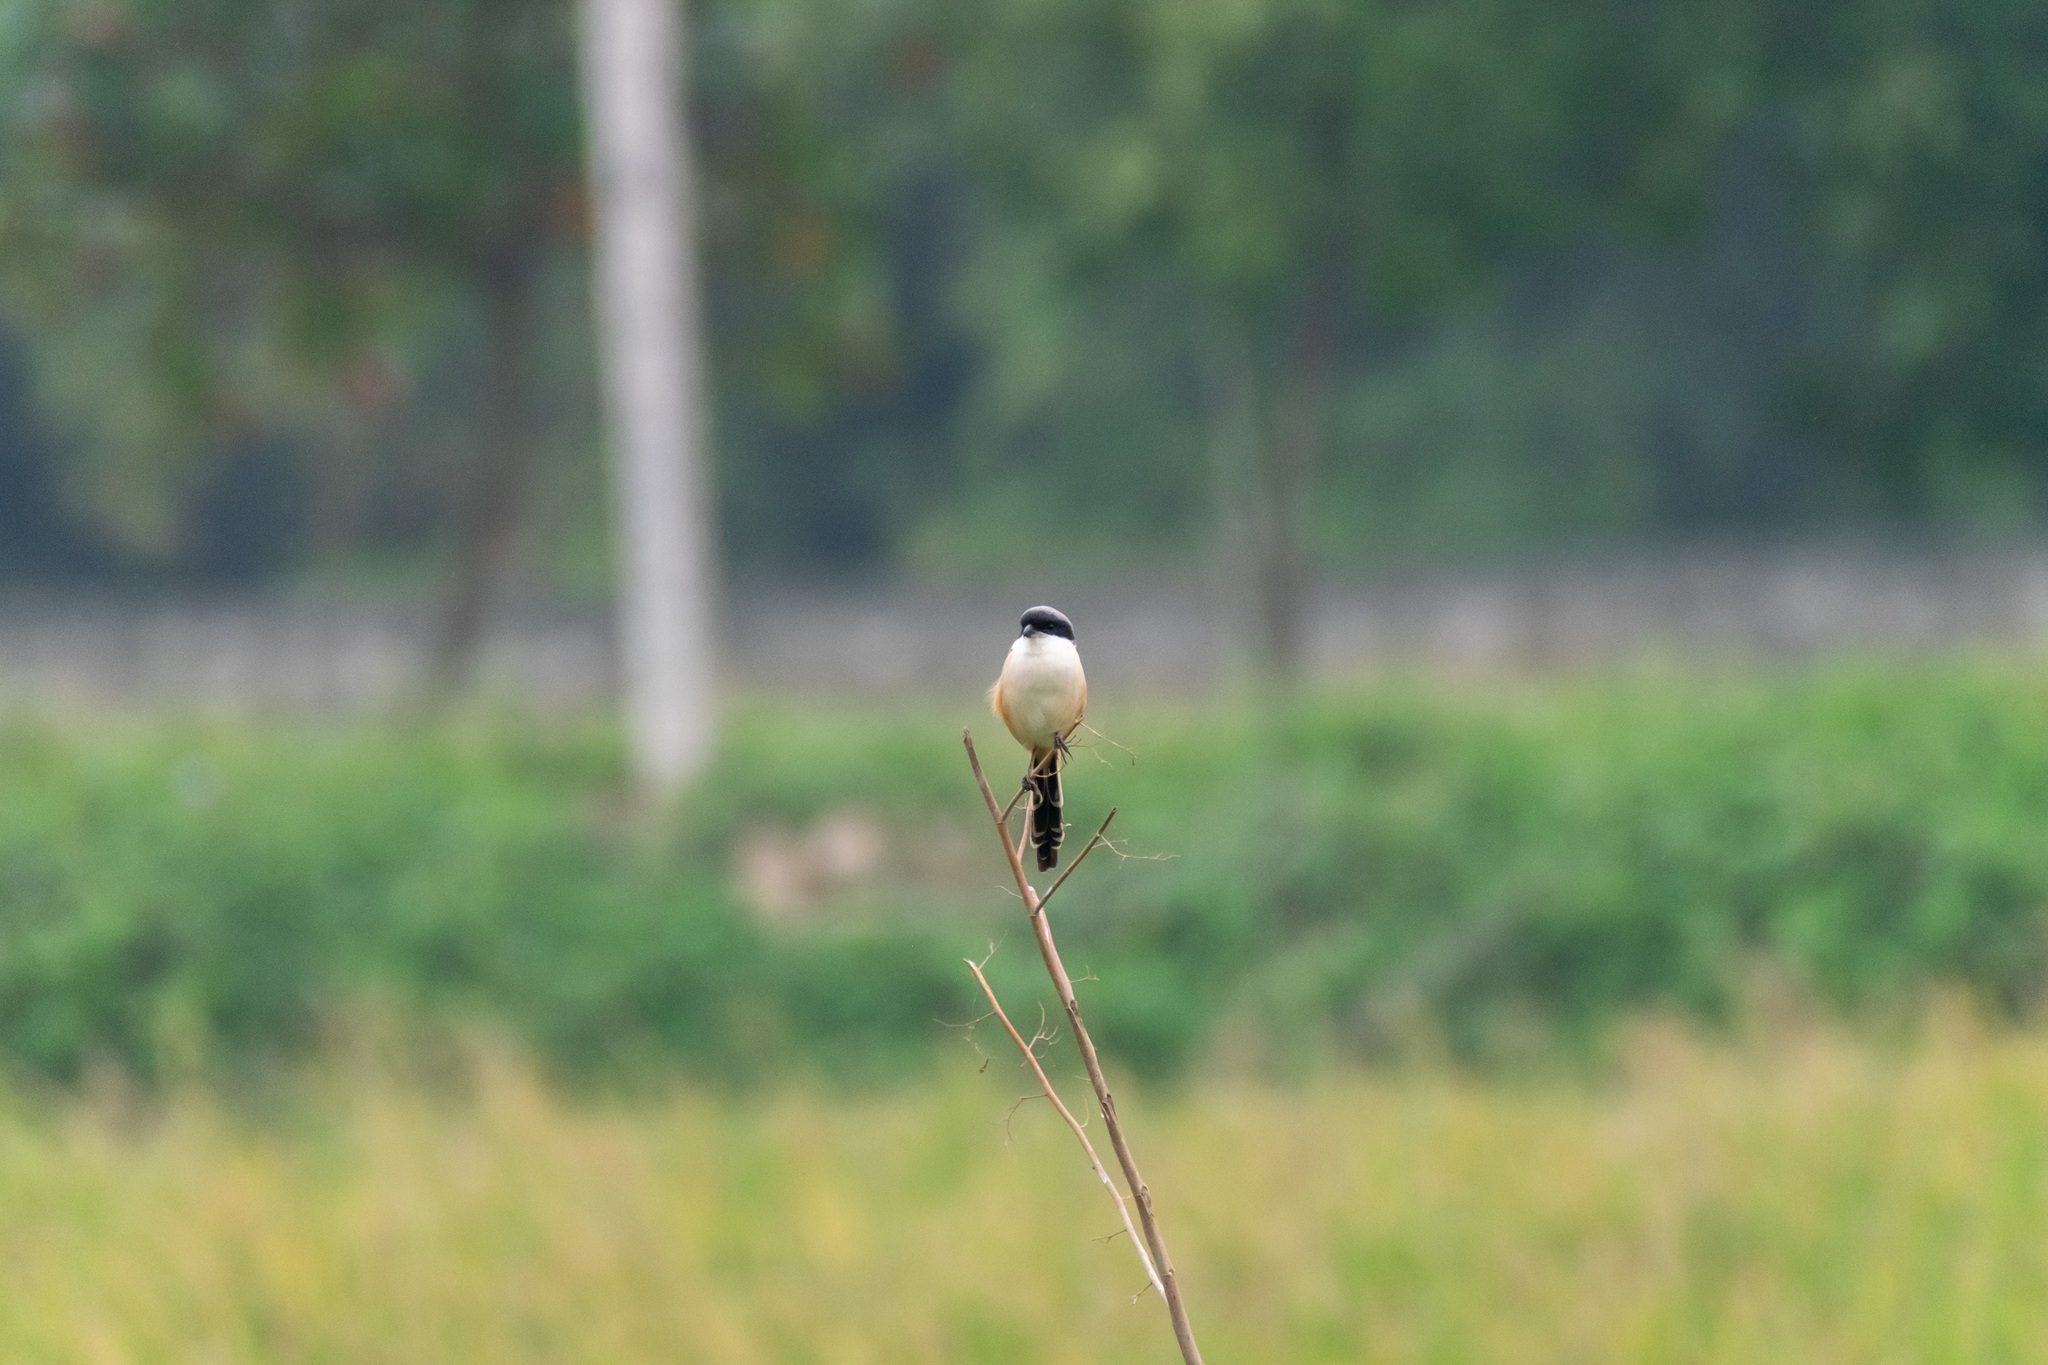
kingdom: Animalia
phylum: Chordata
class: Aves
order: Passeriformes
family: Laniidae
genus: Lanius
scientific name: Lanius schach
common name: Long-tailed shrike
